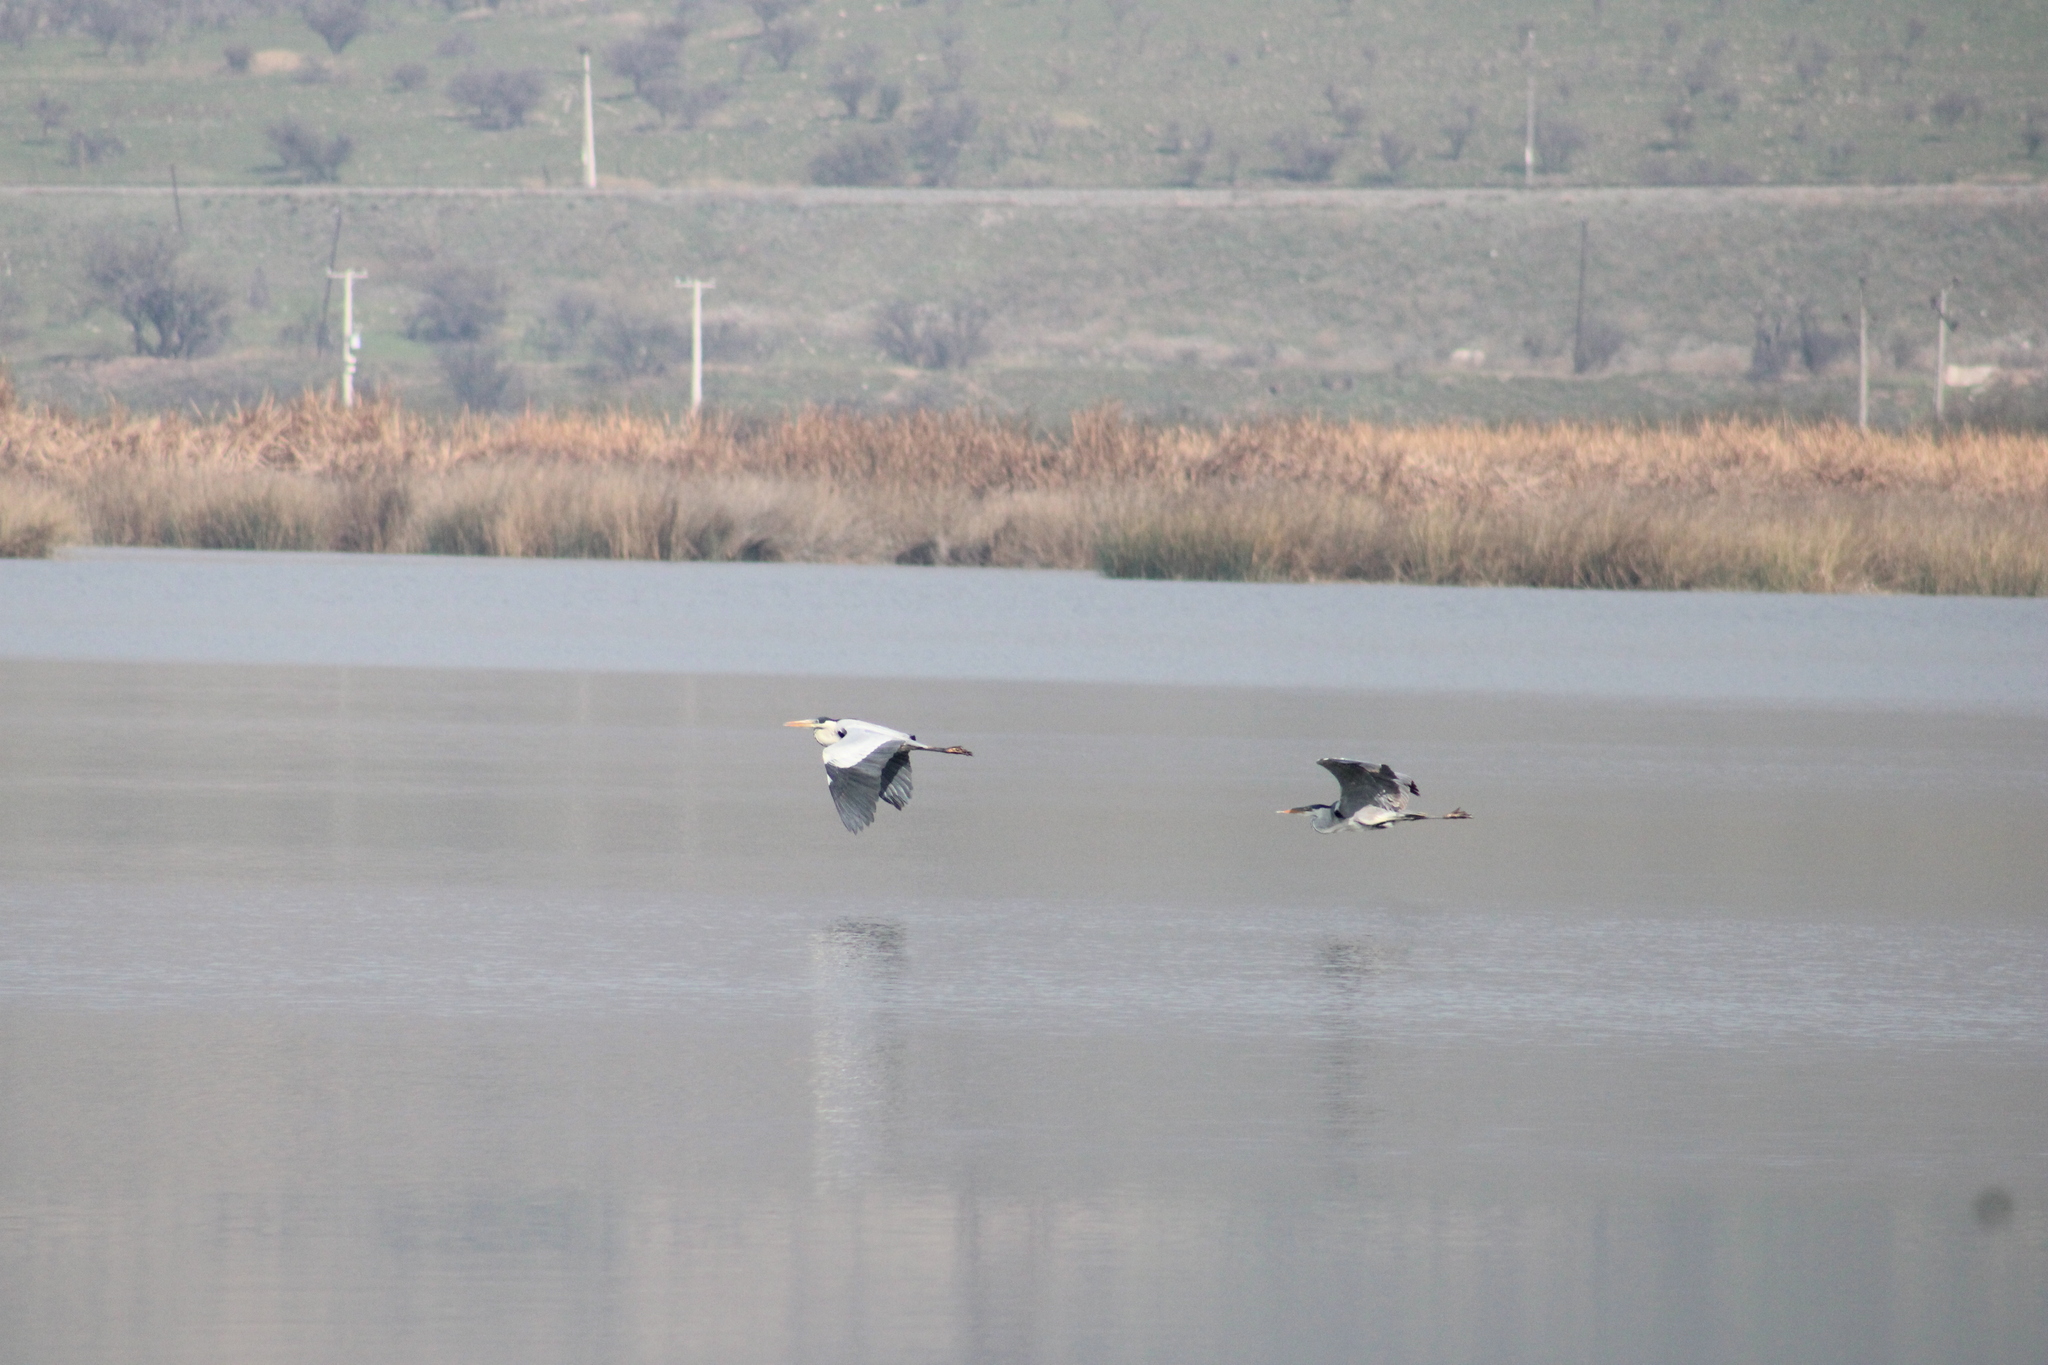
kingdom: Animalia
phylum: Chordata
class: Aves
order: Pelecaniformes
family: Ardeidae
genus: Ardea
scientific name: Ardea cocoi
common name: Cocoi heron
